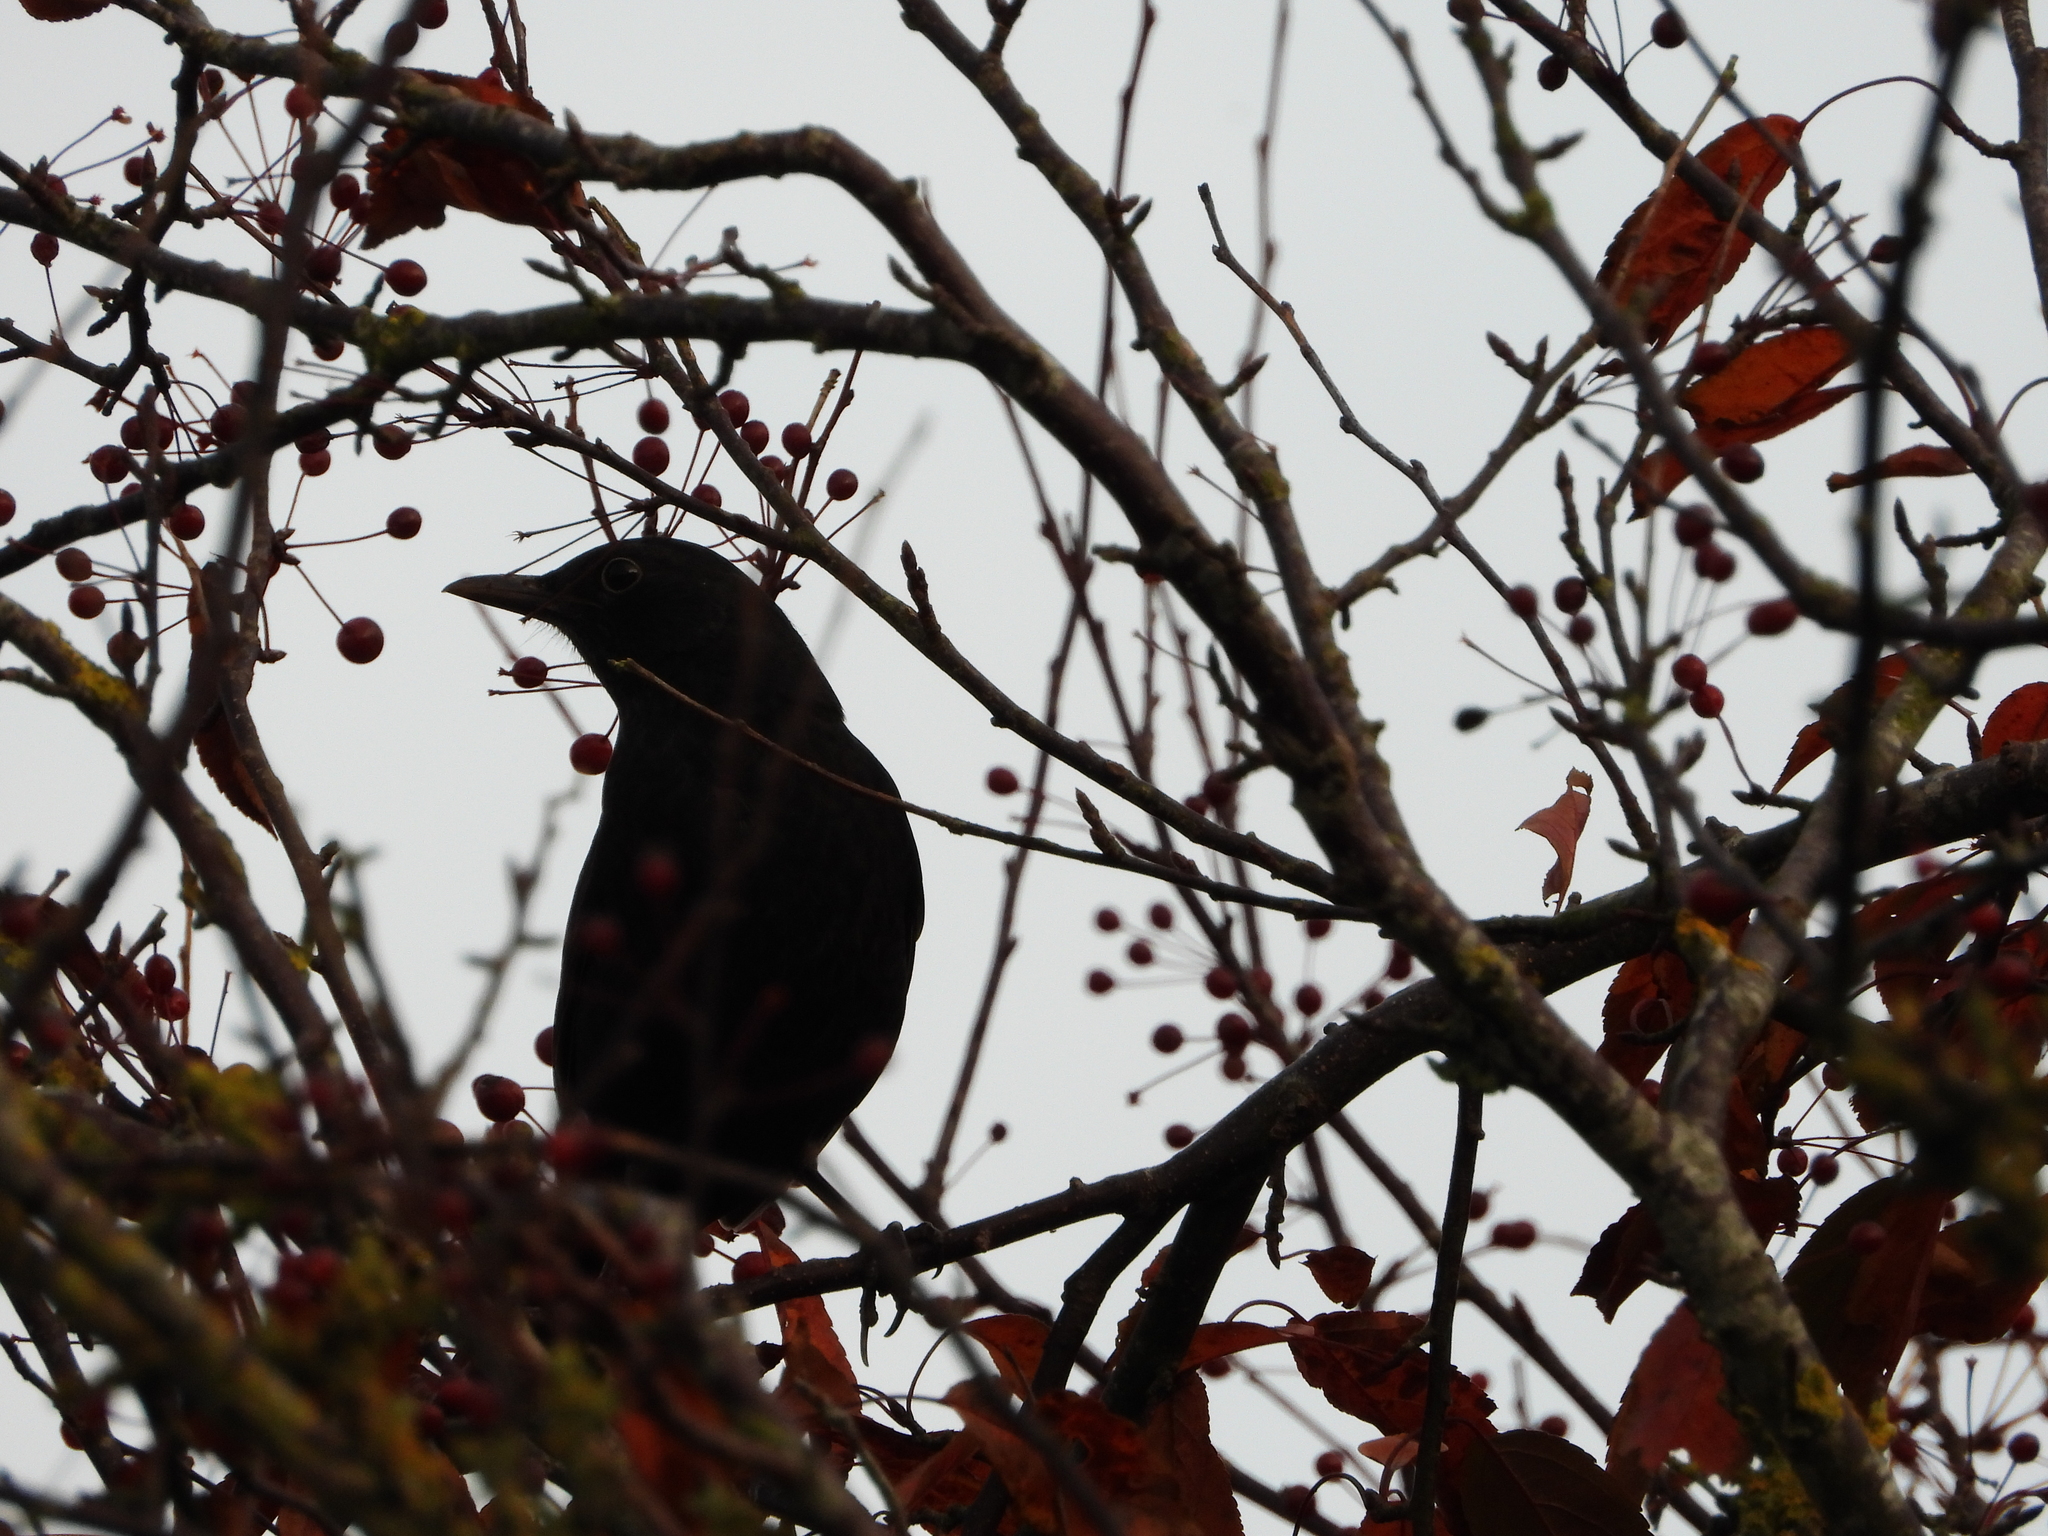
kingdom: Animalia
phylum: Chordata
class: Aves
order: Passeriformes
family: Turdidae
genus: Turdus
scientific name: Turdus merula
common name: Common blackbird
